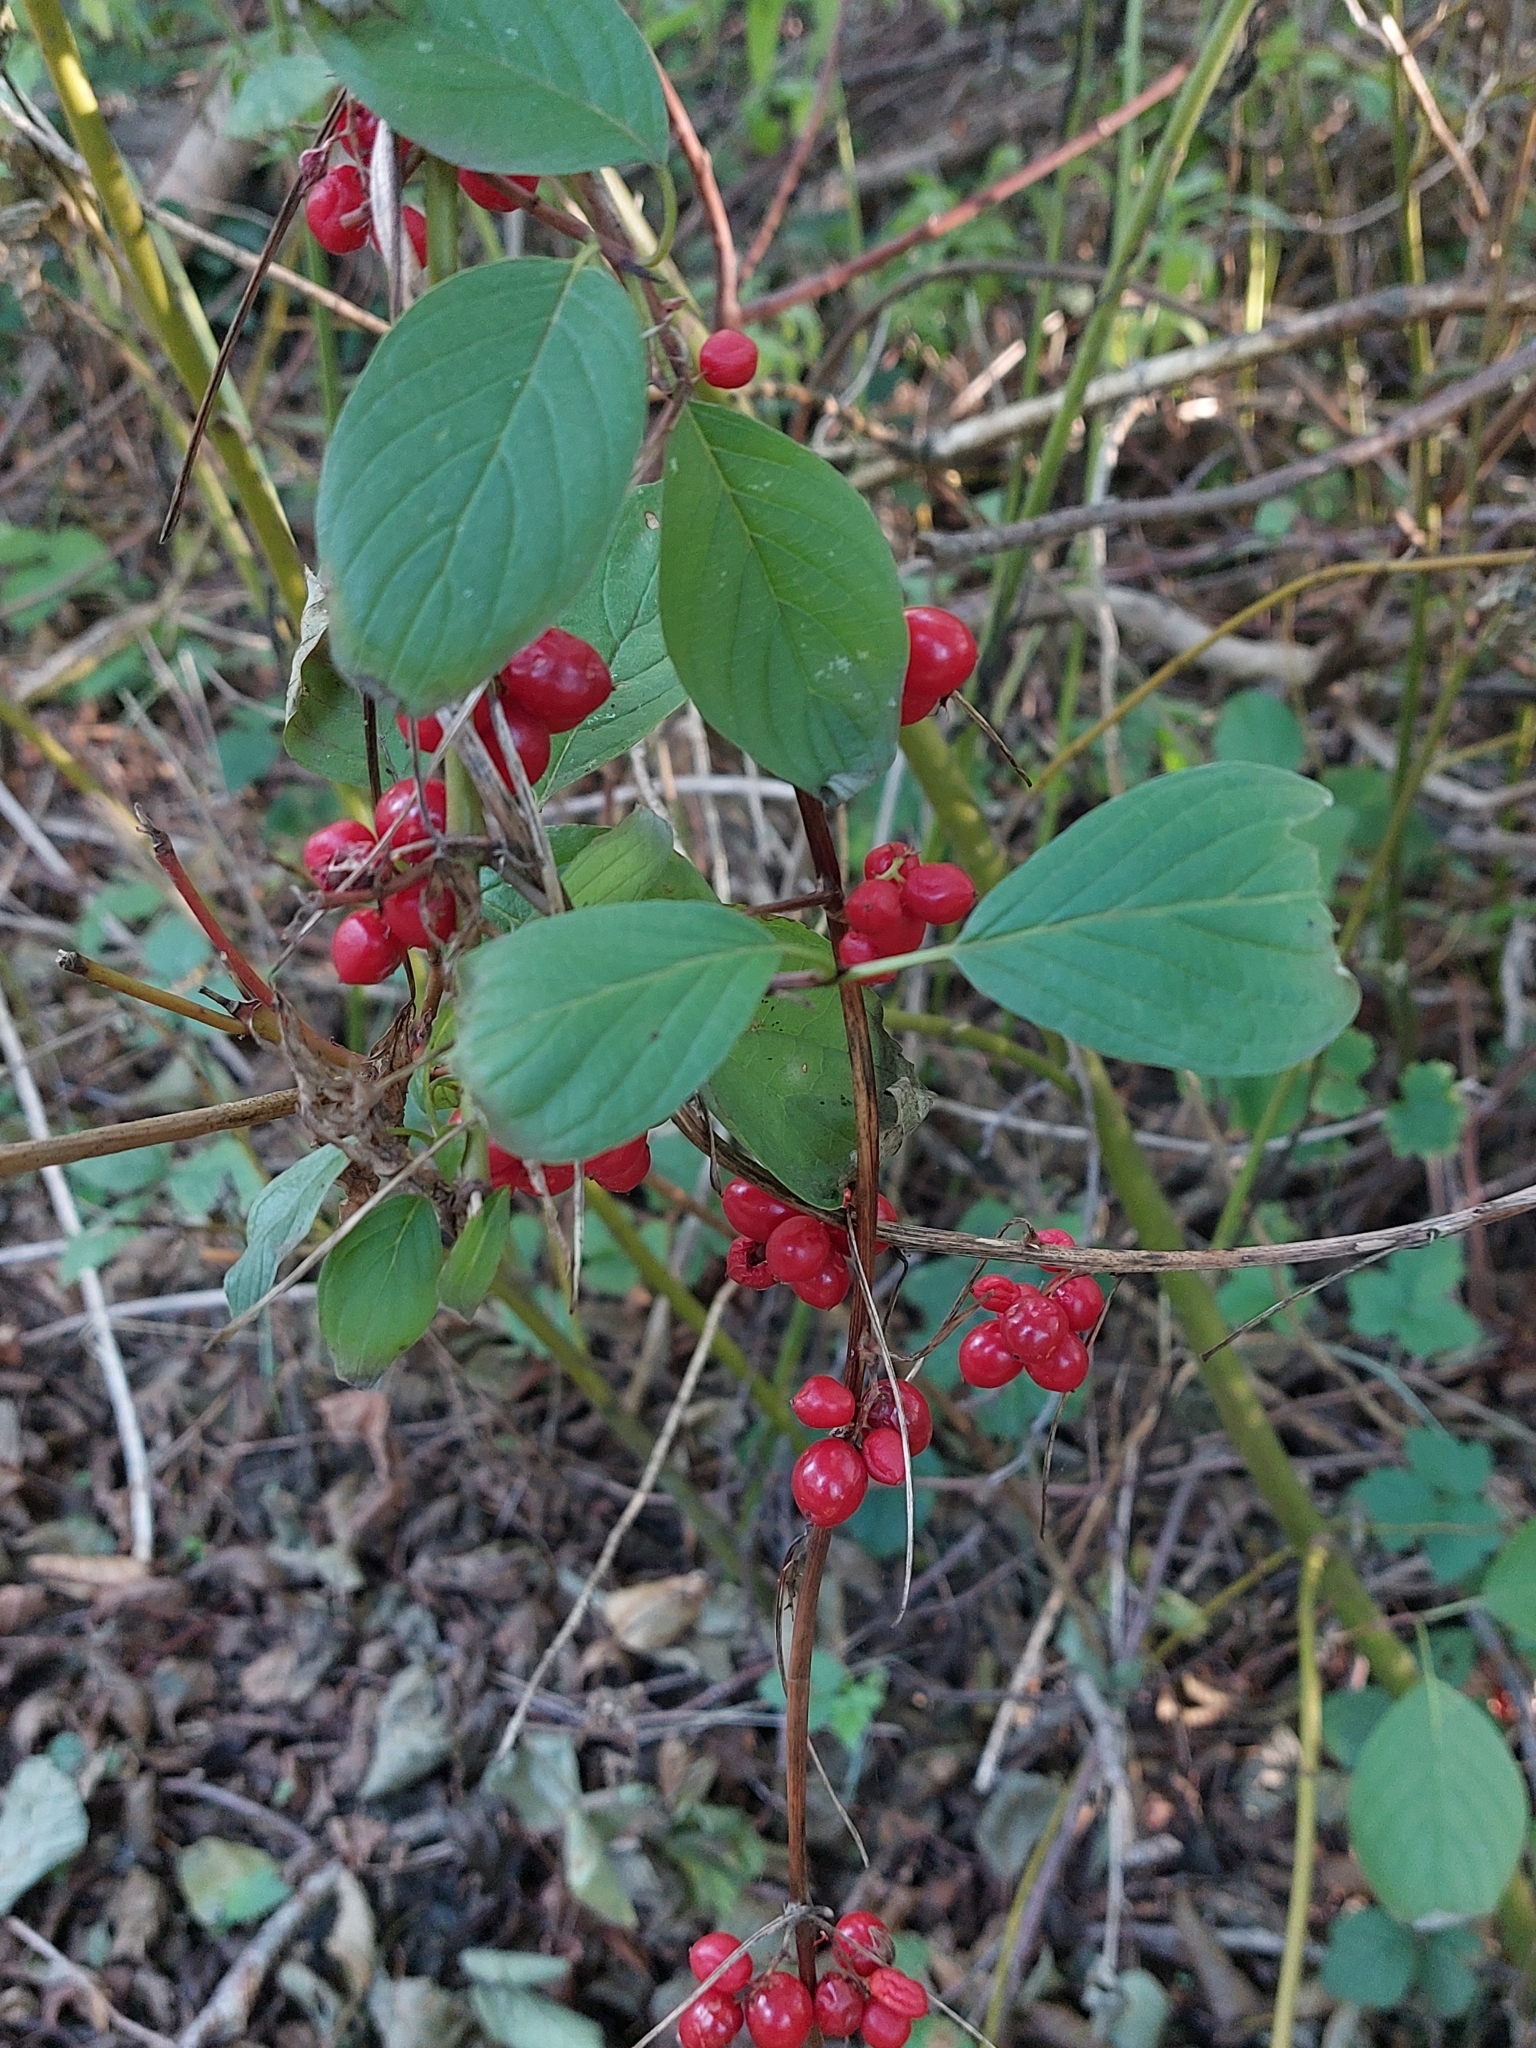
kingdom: Plantae
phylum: Tracheophyta
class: Liliopsida
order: Dioscoreales
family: Dioscoreaceae
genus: Dioscorea
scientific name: Dioscorea communis
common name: Black-bindweed
